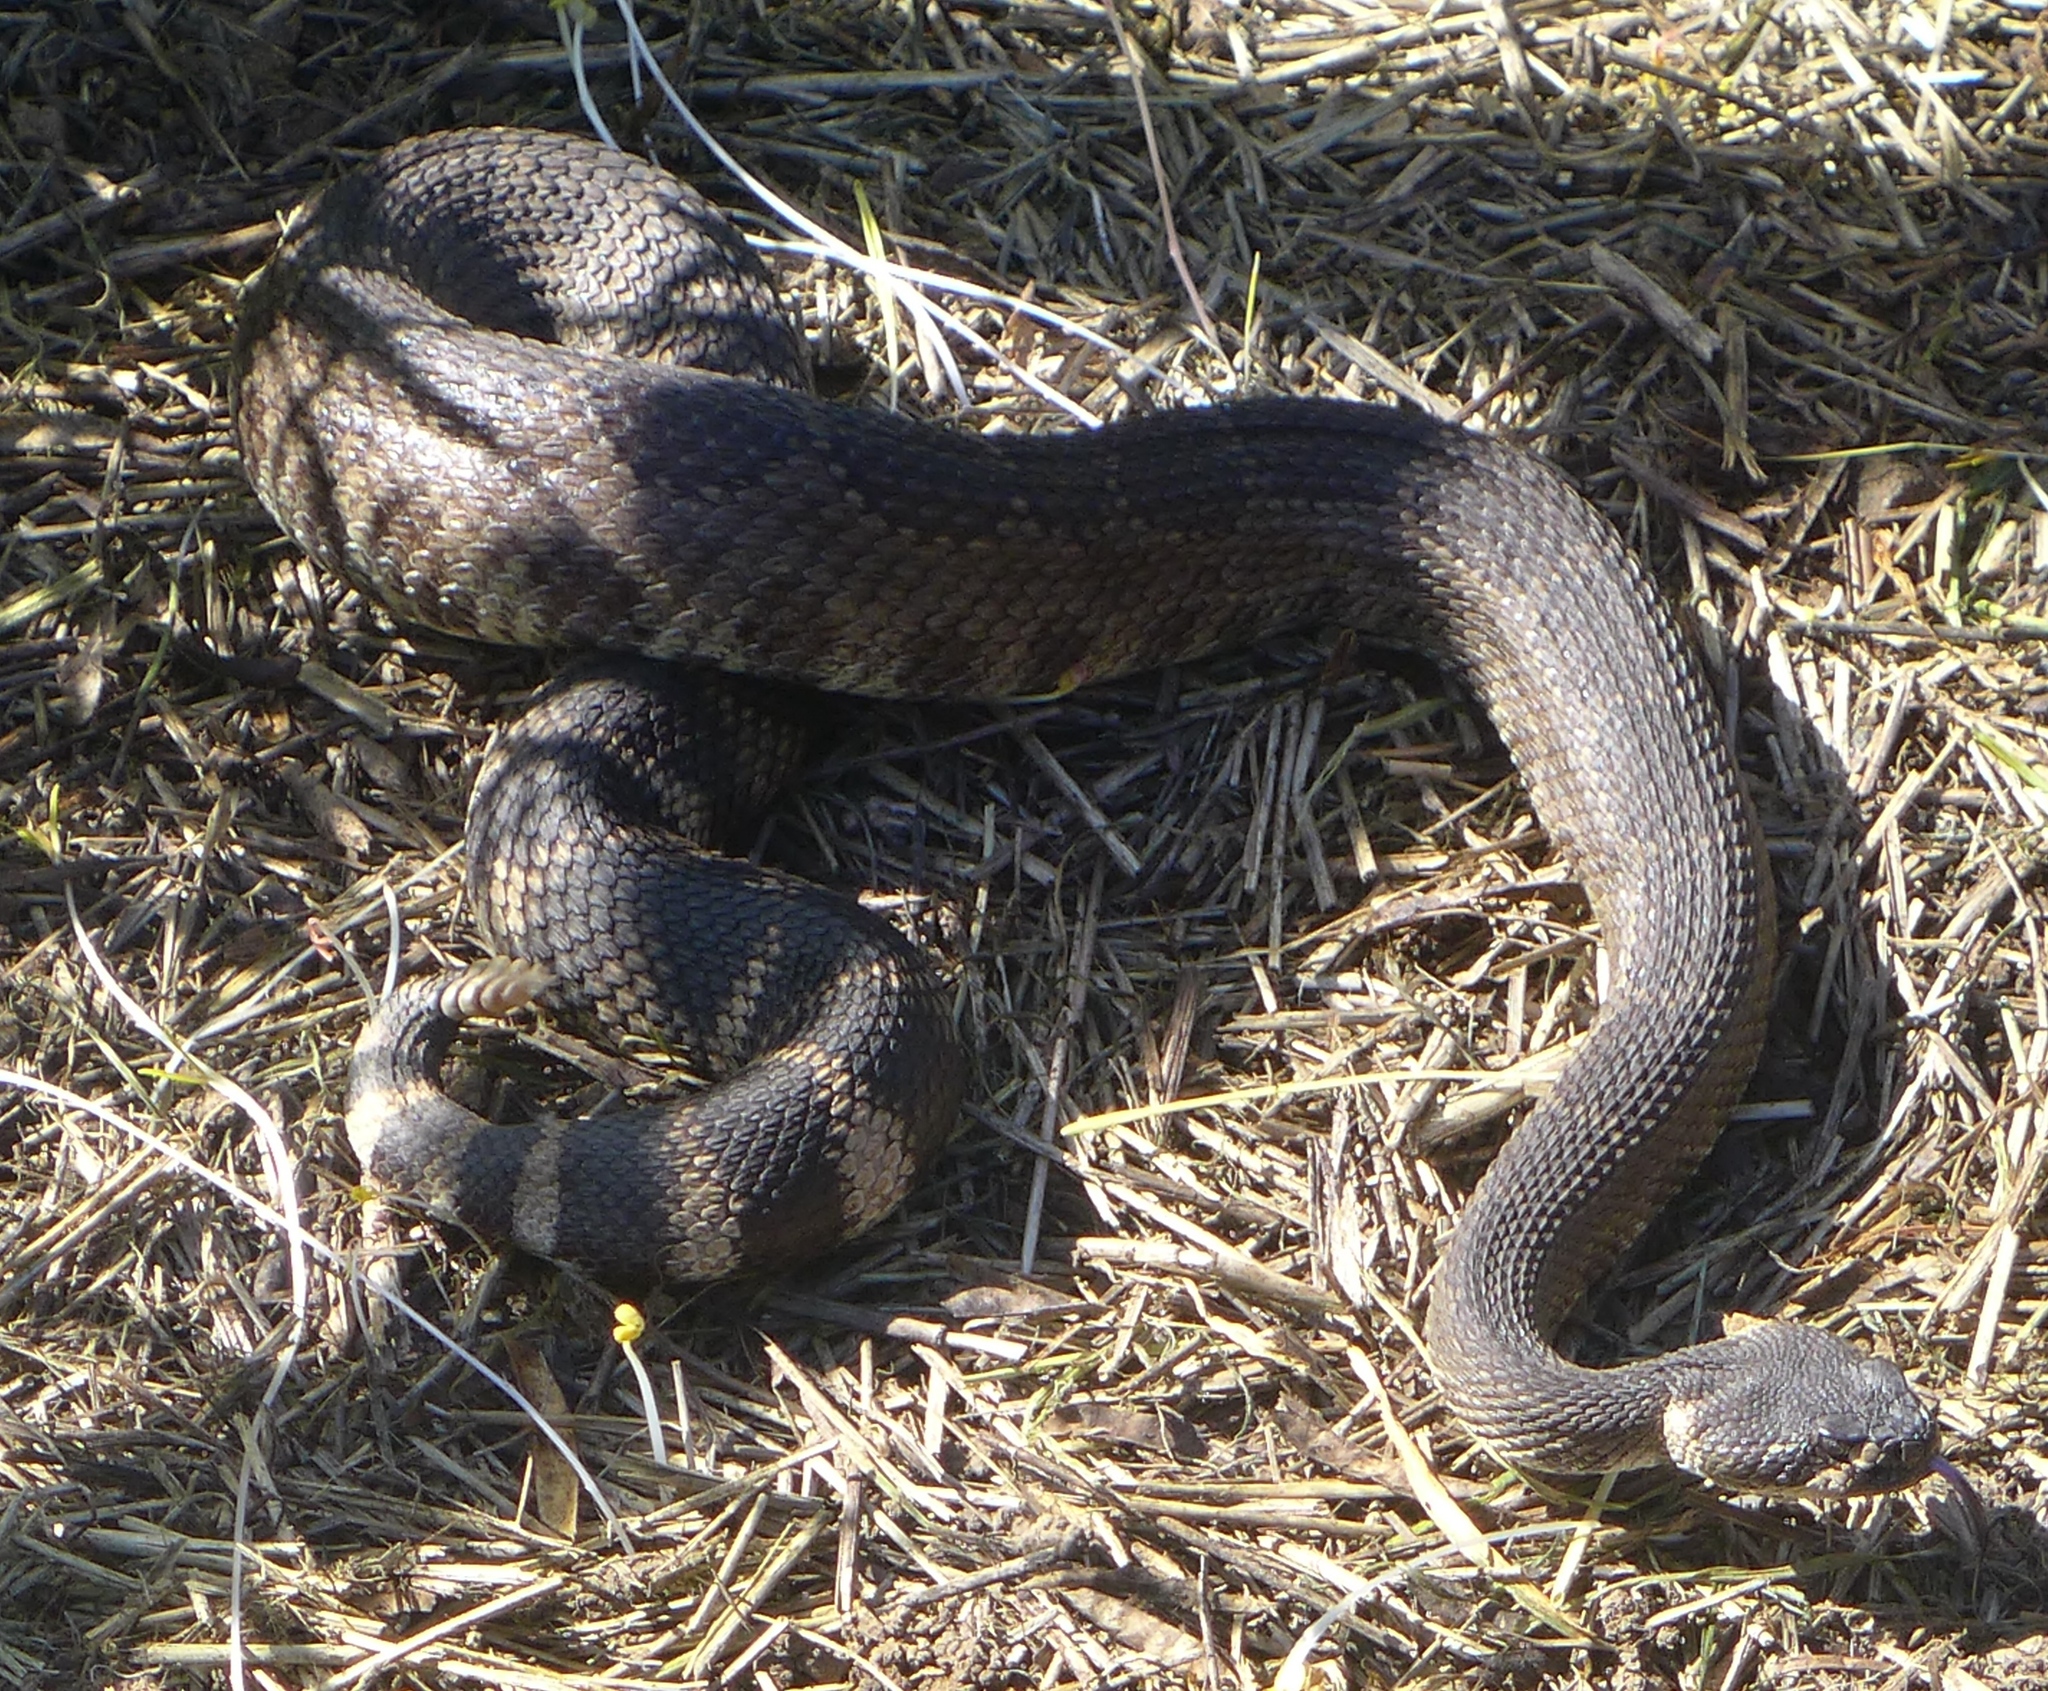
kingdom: Animalia
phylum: Chordata
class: Squamata
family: Viperidae
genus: Crotalus
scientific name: Crotalus oreganus
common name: Abyssus
